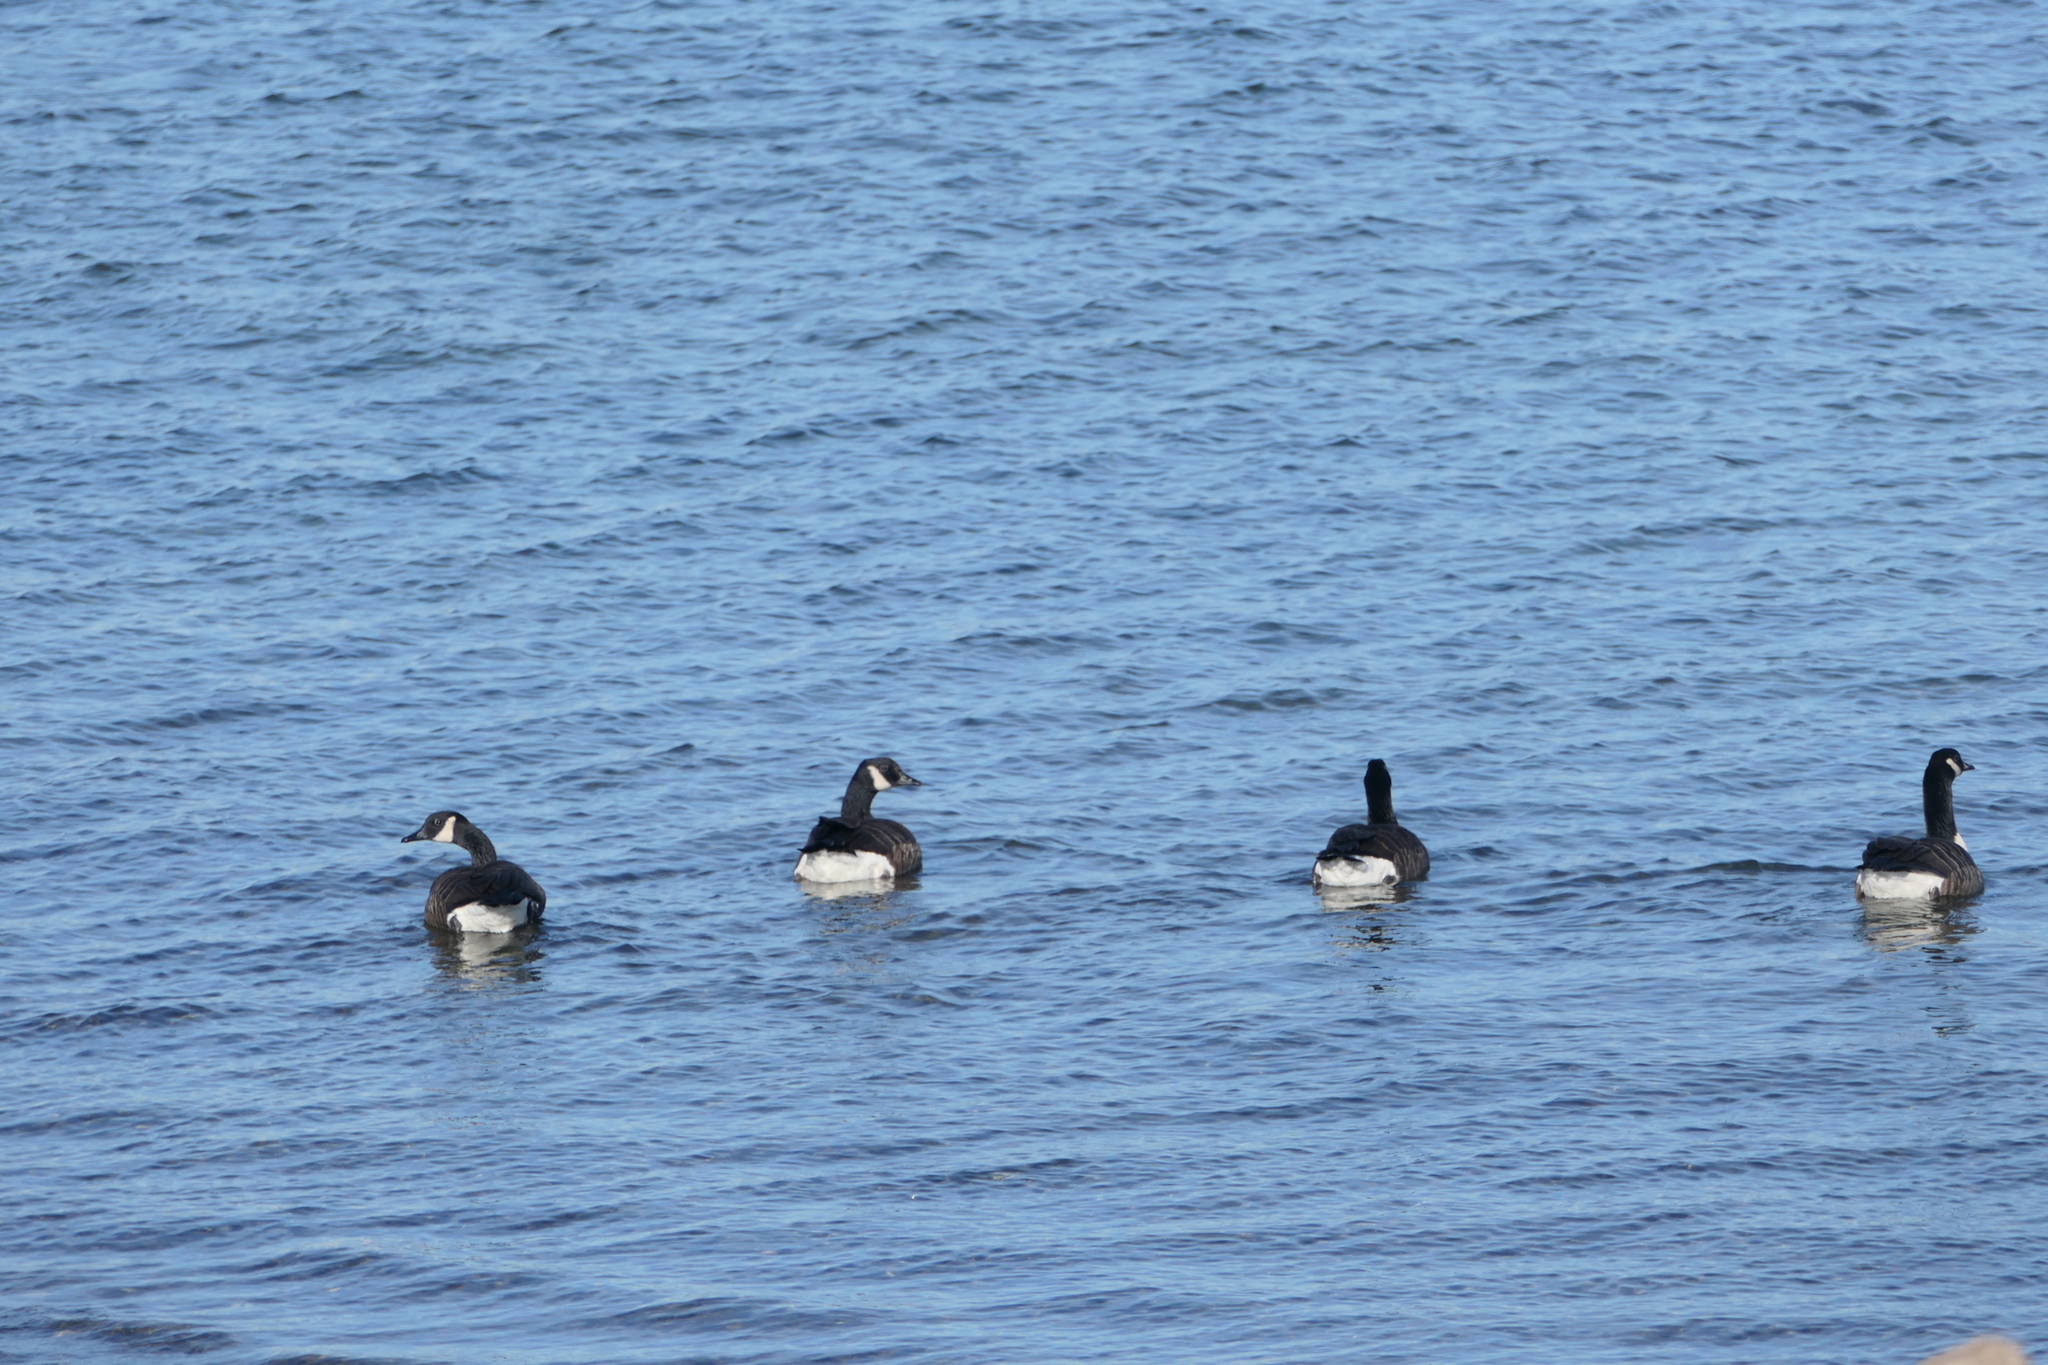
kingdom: Animalia
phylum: Chordata
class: Aves
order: Anseriformes
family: Anatidae
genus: Branta
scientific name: Branta canadensis
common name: Canada goose
